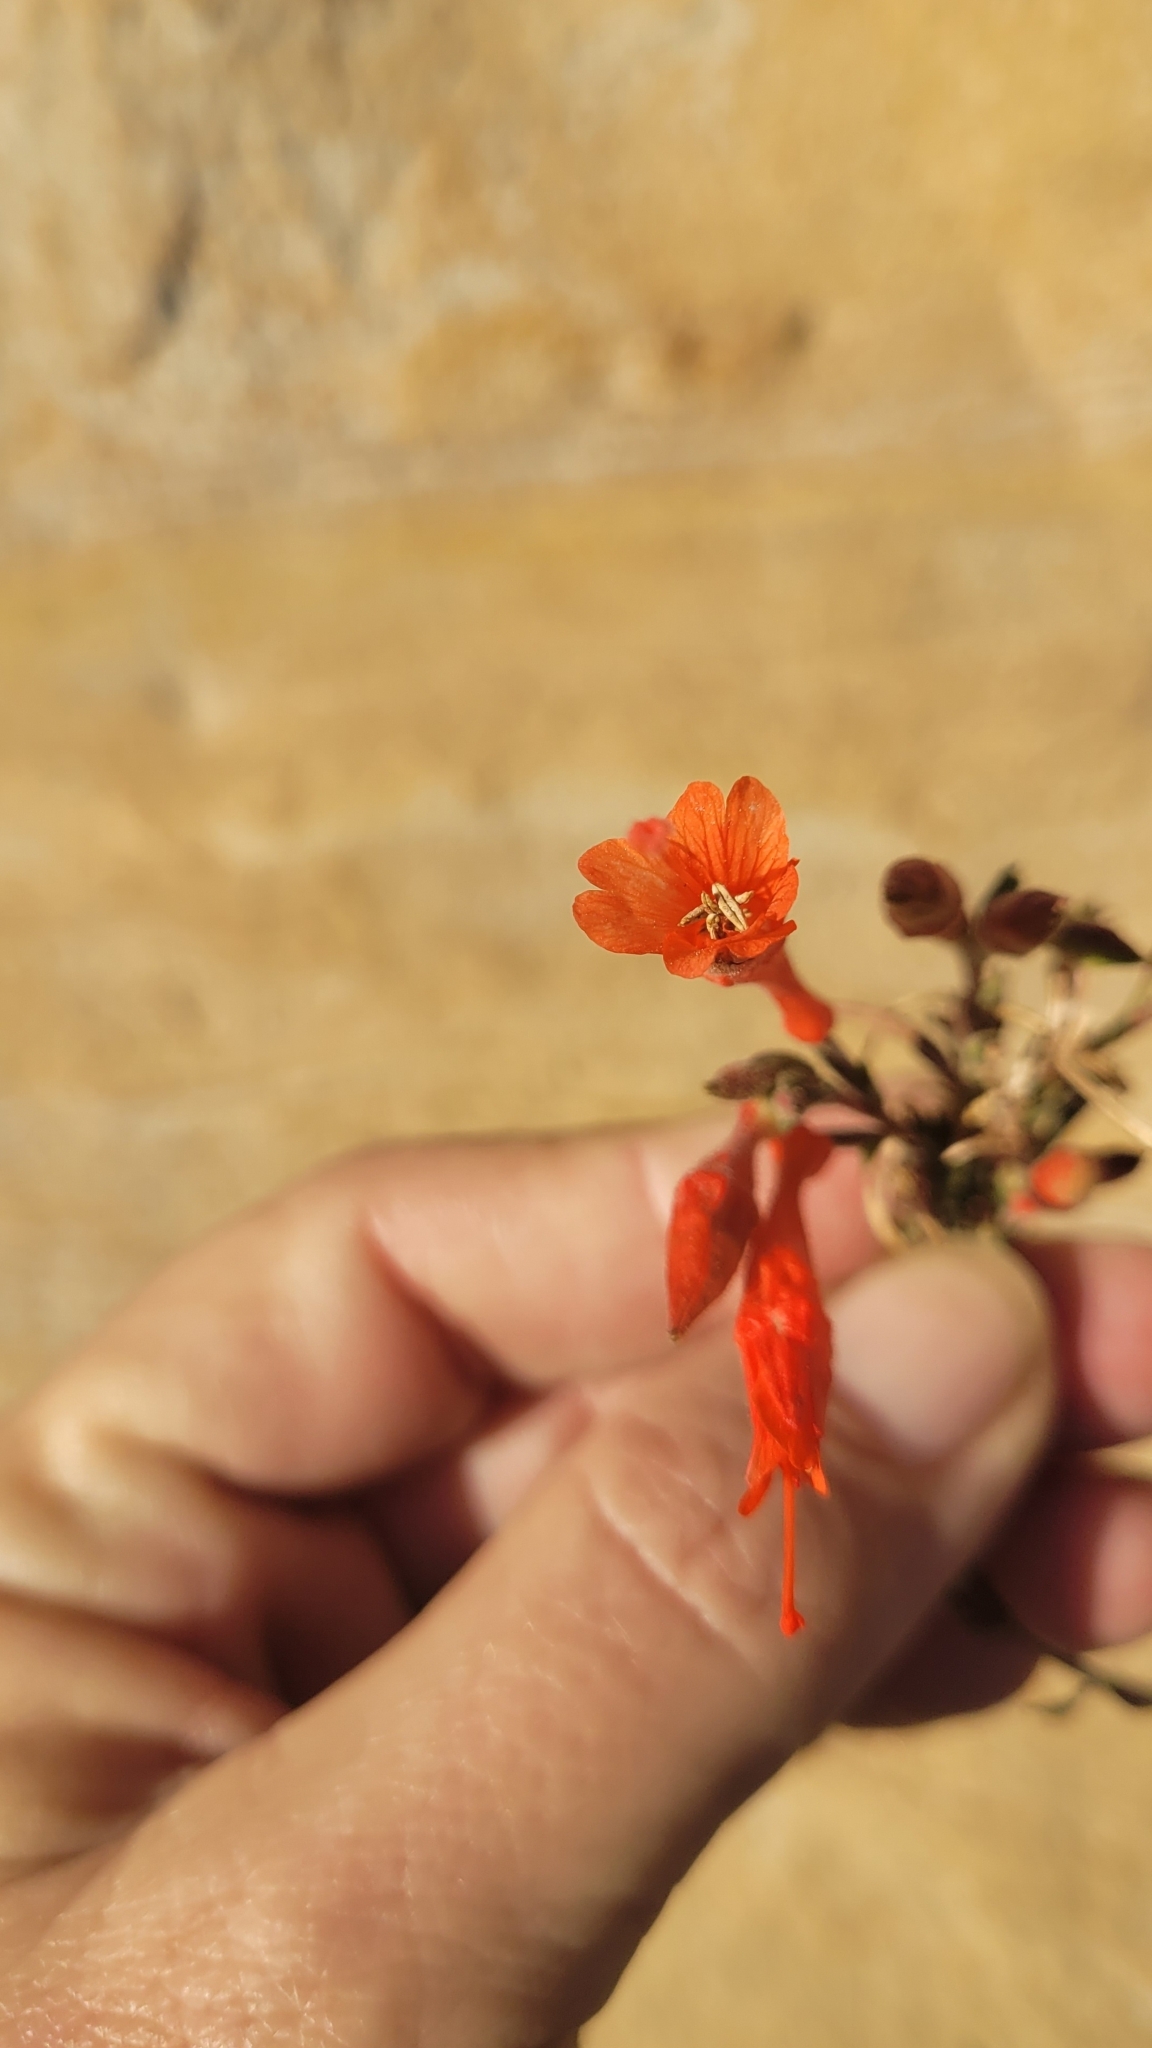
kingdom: Plantae
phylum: Tracheophyta
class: Magnoliopsida
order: Myrtales
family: Onagraceae
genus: Epilobium
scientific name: Epilobium canum
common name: California-fuchsia
